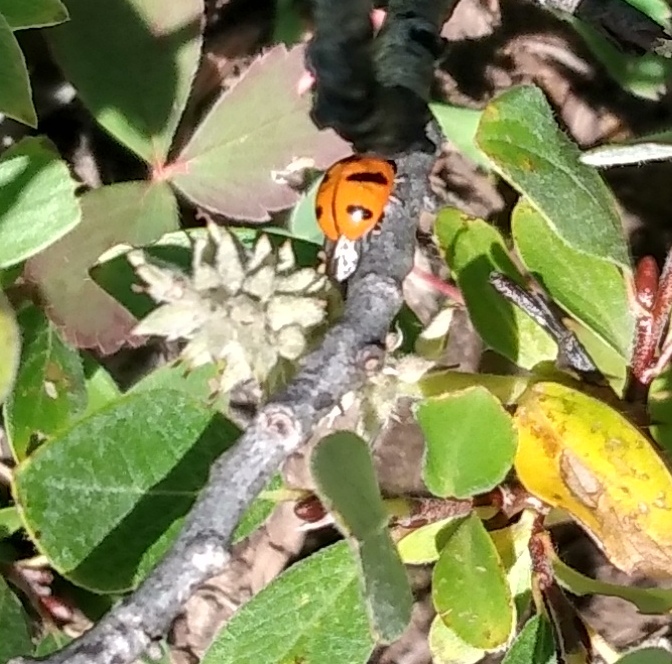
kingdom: Animalia
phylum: Arthropoda
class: Insecta
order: Coleoptera
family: Coccinellidae
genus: Coccinella
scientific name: Coccinella monticola
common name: Mountain lady beetle
